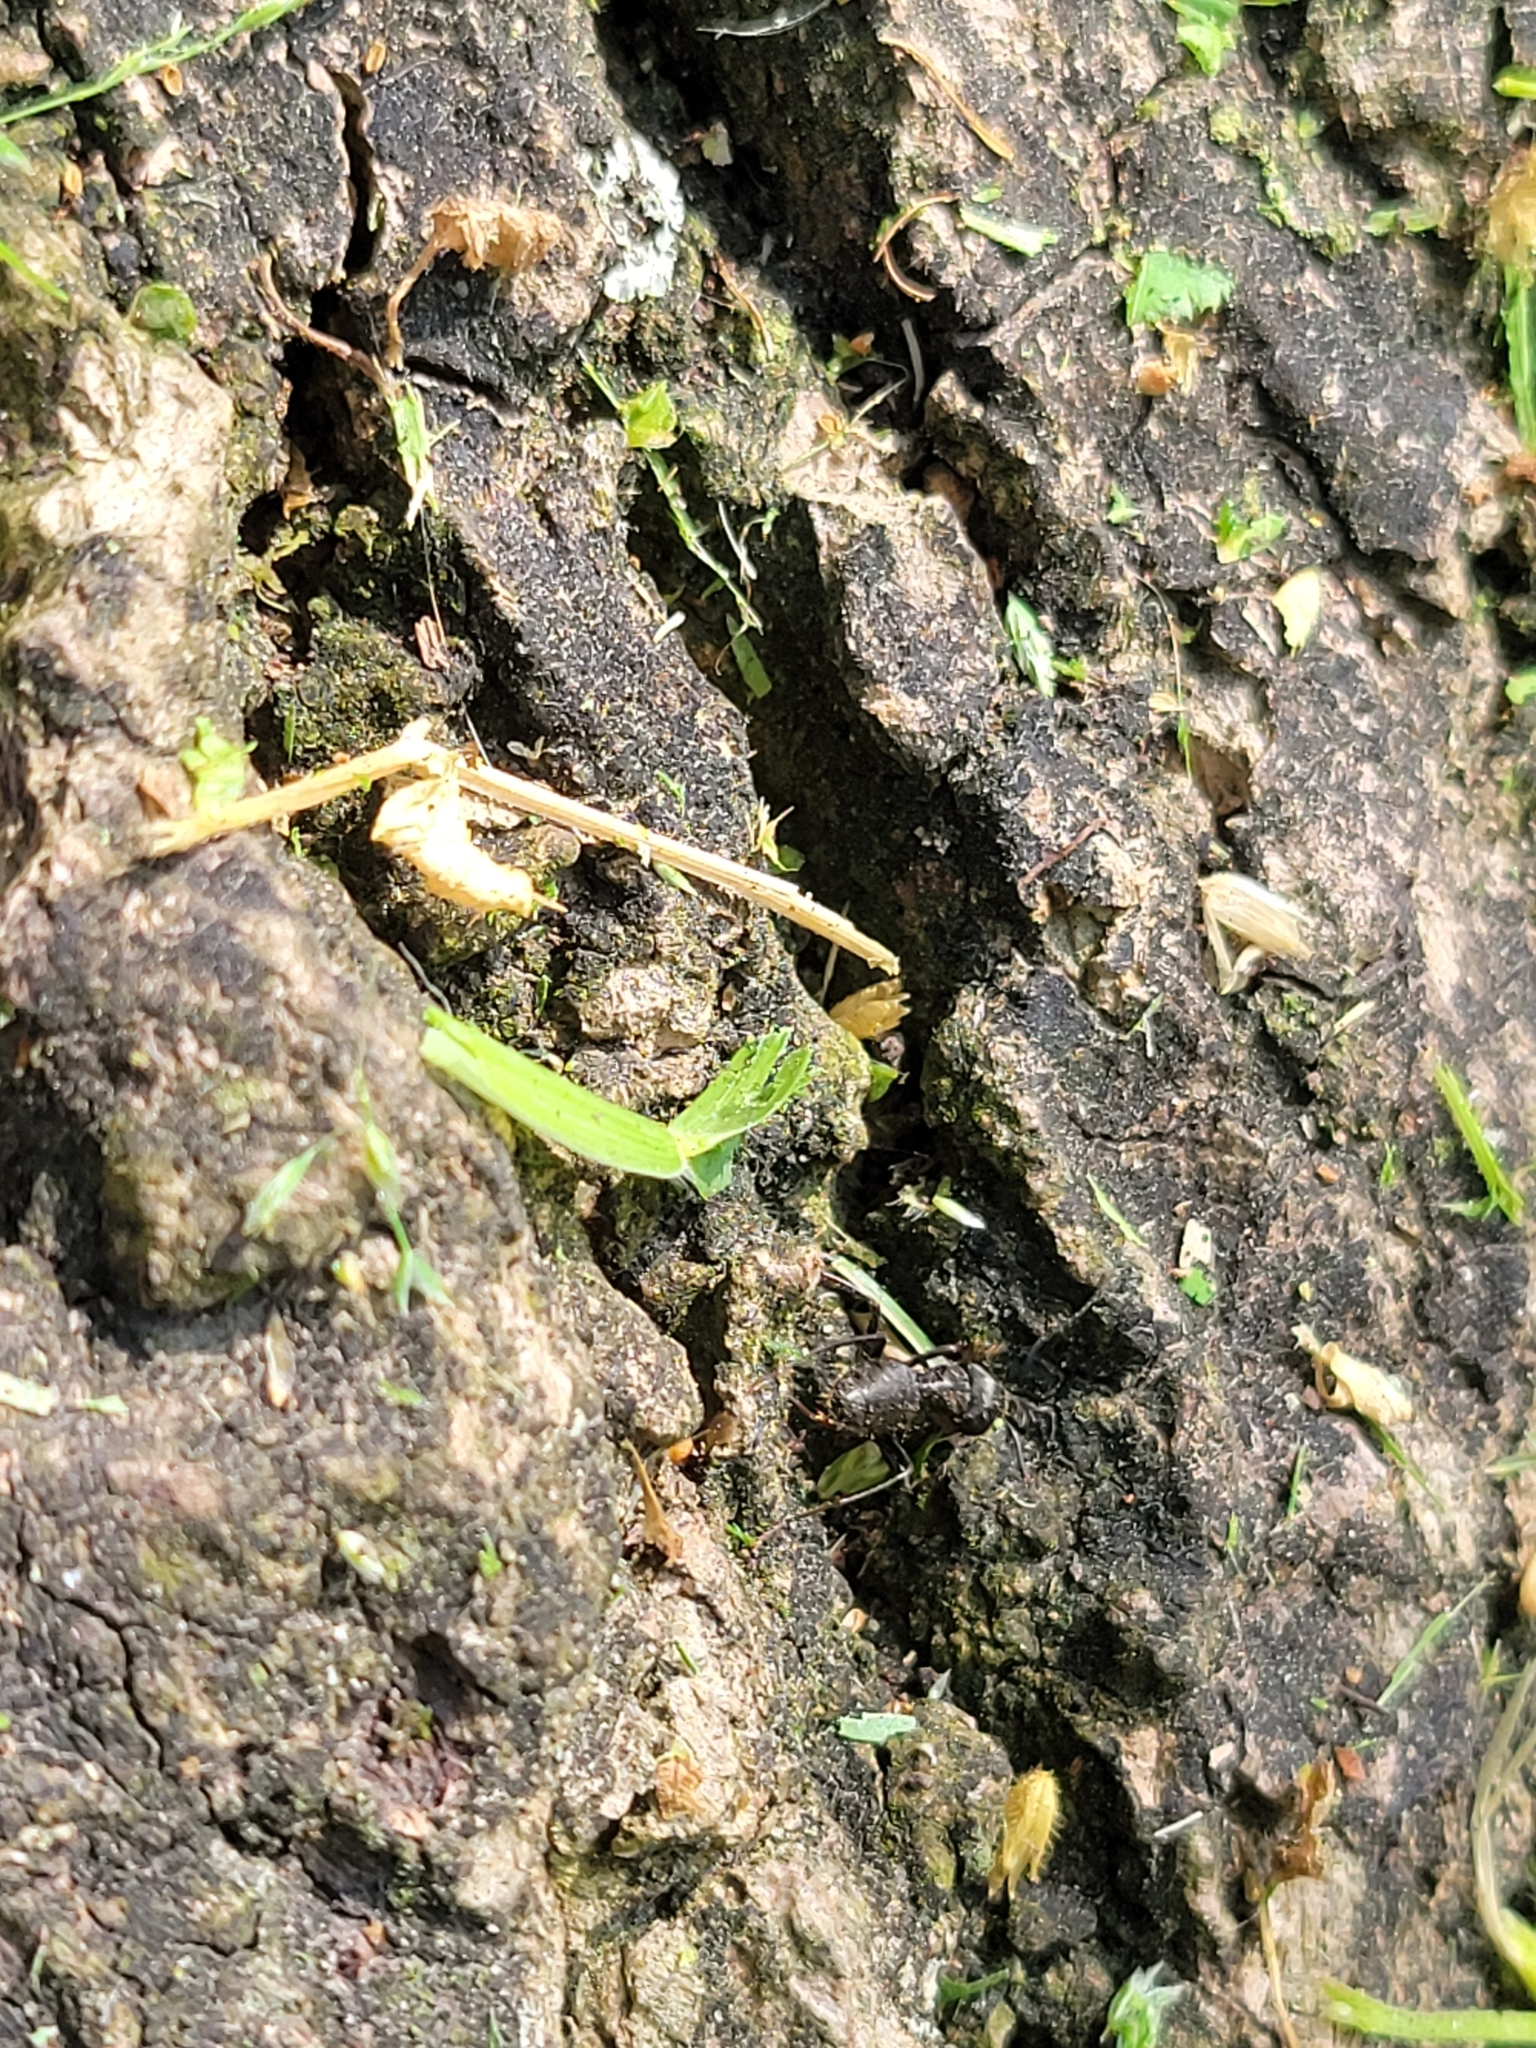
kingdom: Animalia
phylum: Arthropoda
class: Insecta
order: Hymenoptera
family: Formicidae
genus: Camponotus
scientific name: Camponotus pennsylvanicus
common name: Black carpenter ant
